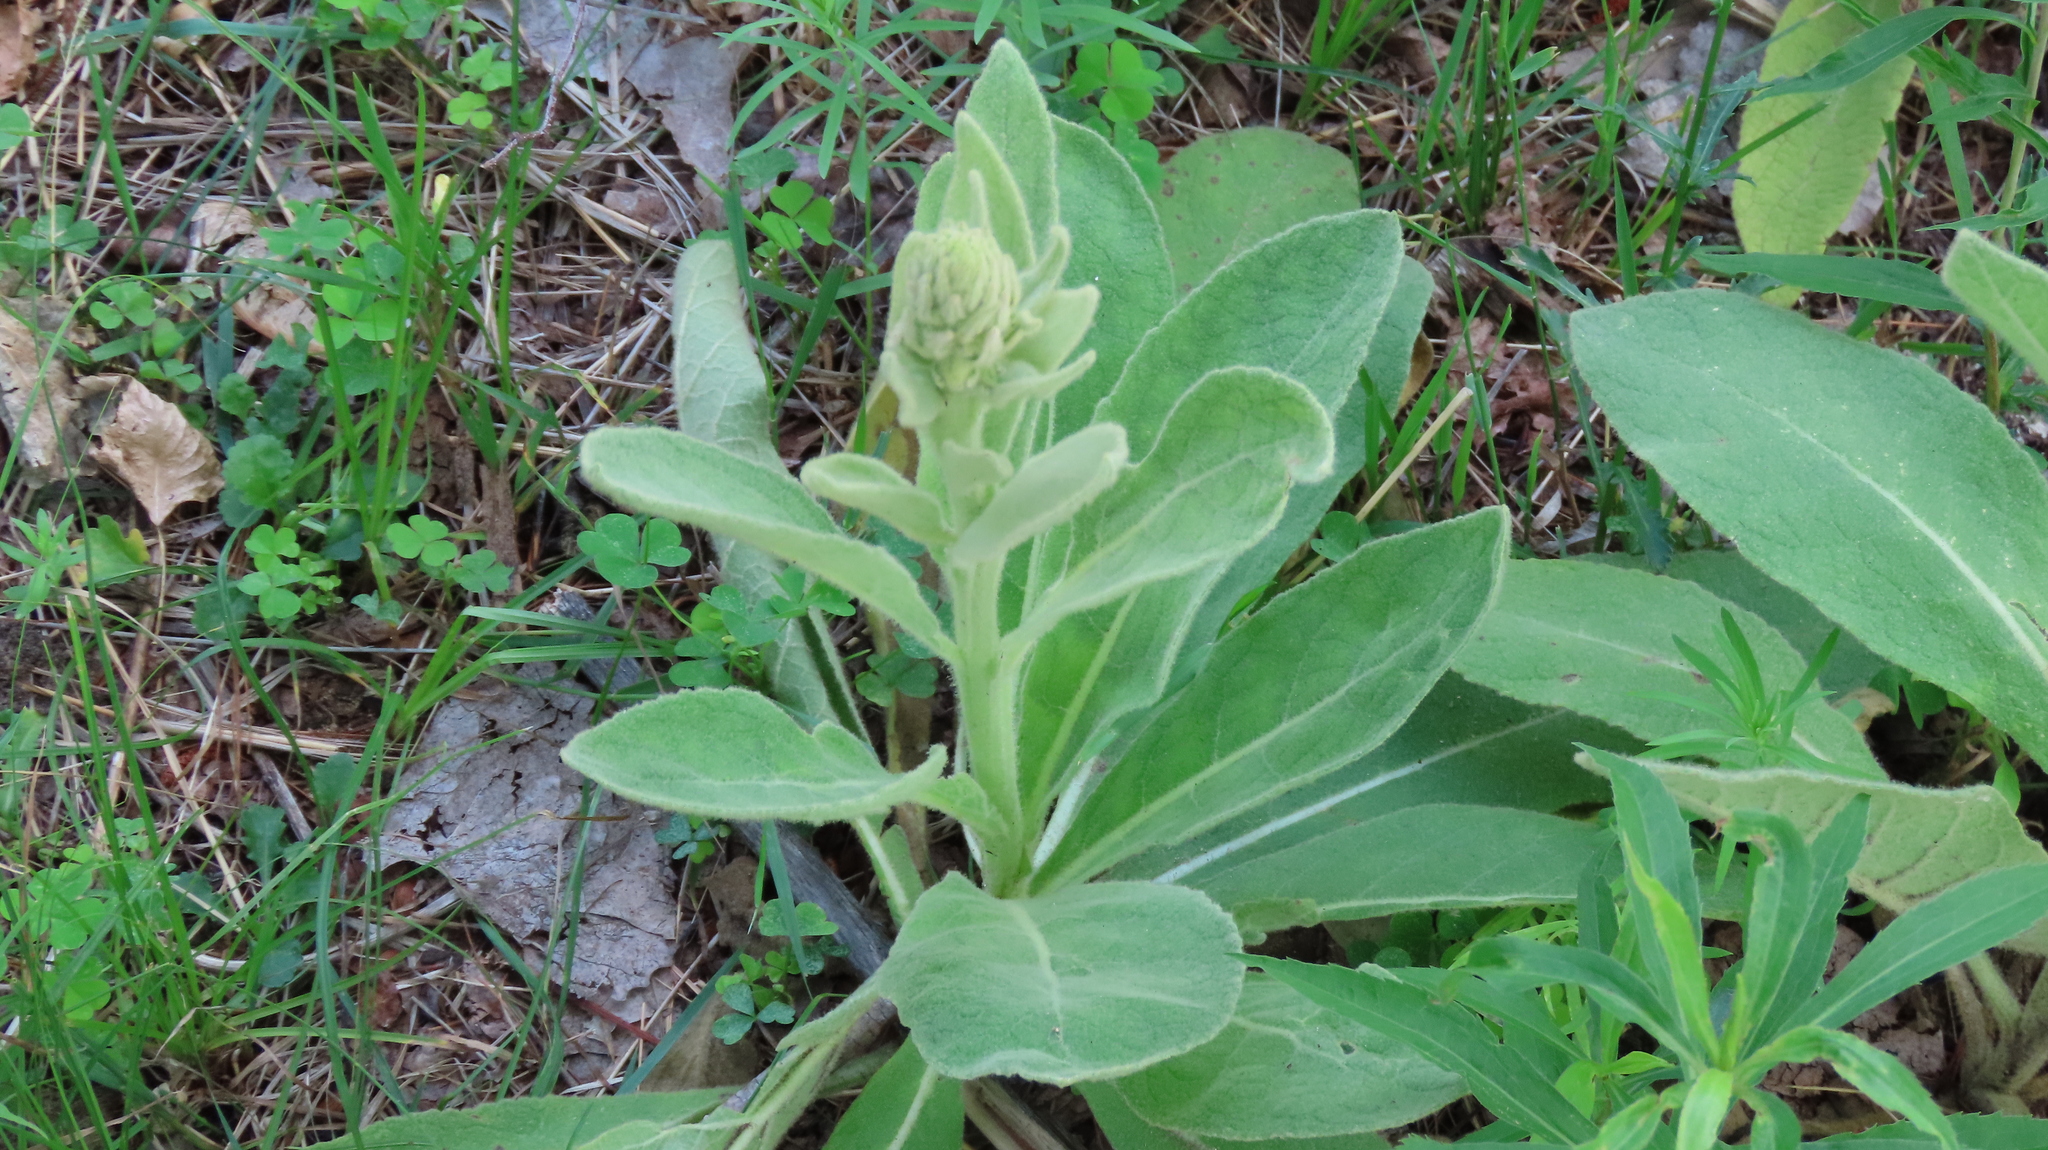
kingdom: Plantae
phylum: Tracheophyta
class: Magnoliopsida
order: Lamiales
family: Scrophulariaceae
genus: Verbascum
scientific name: Verbascum thapsus
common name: Common mullein
